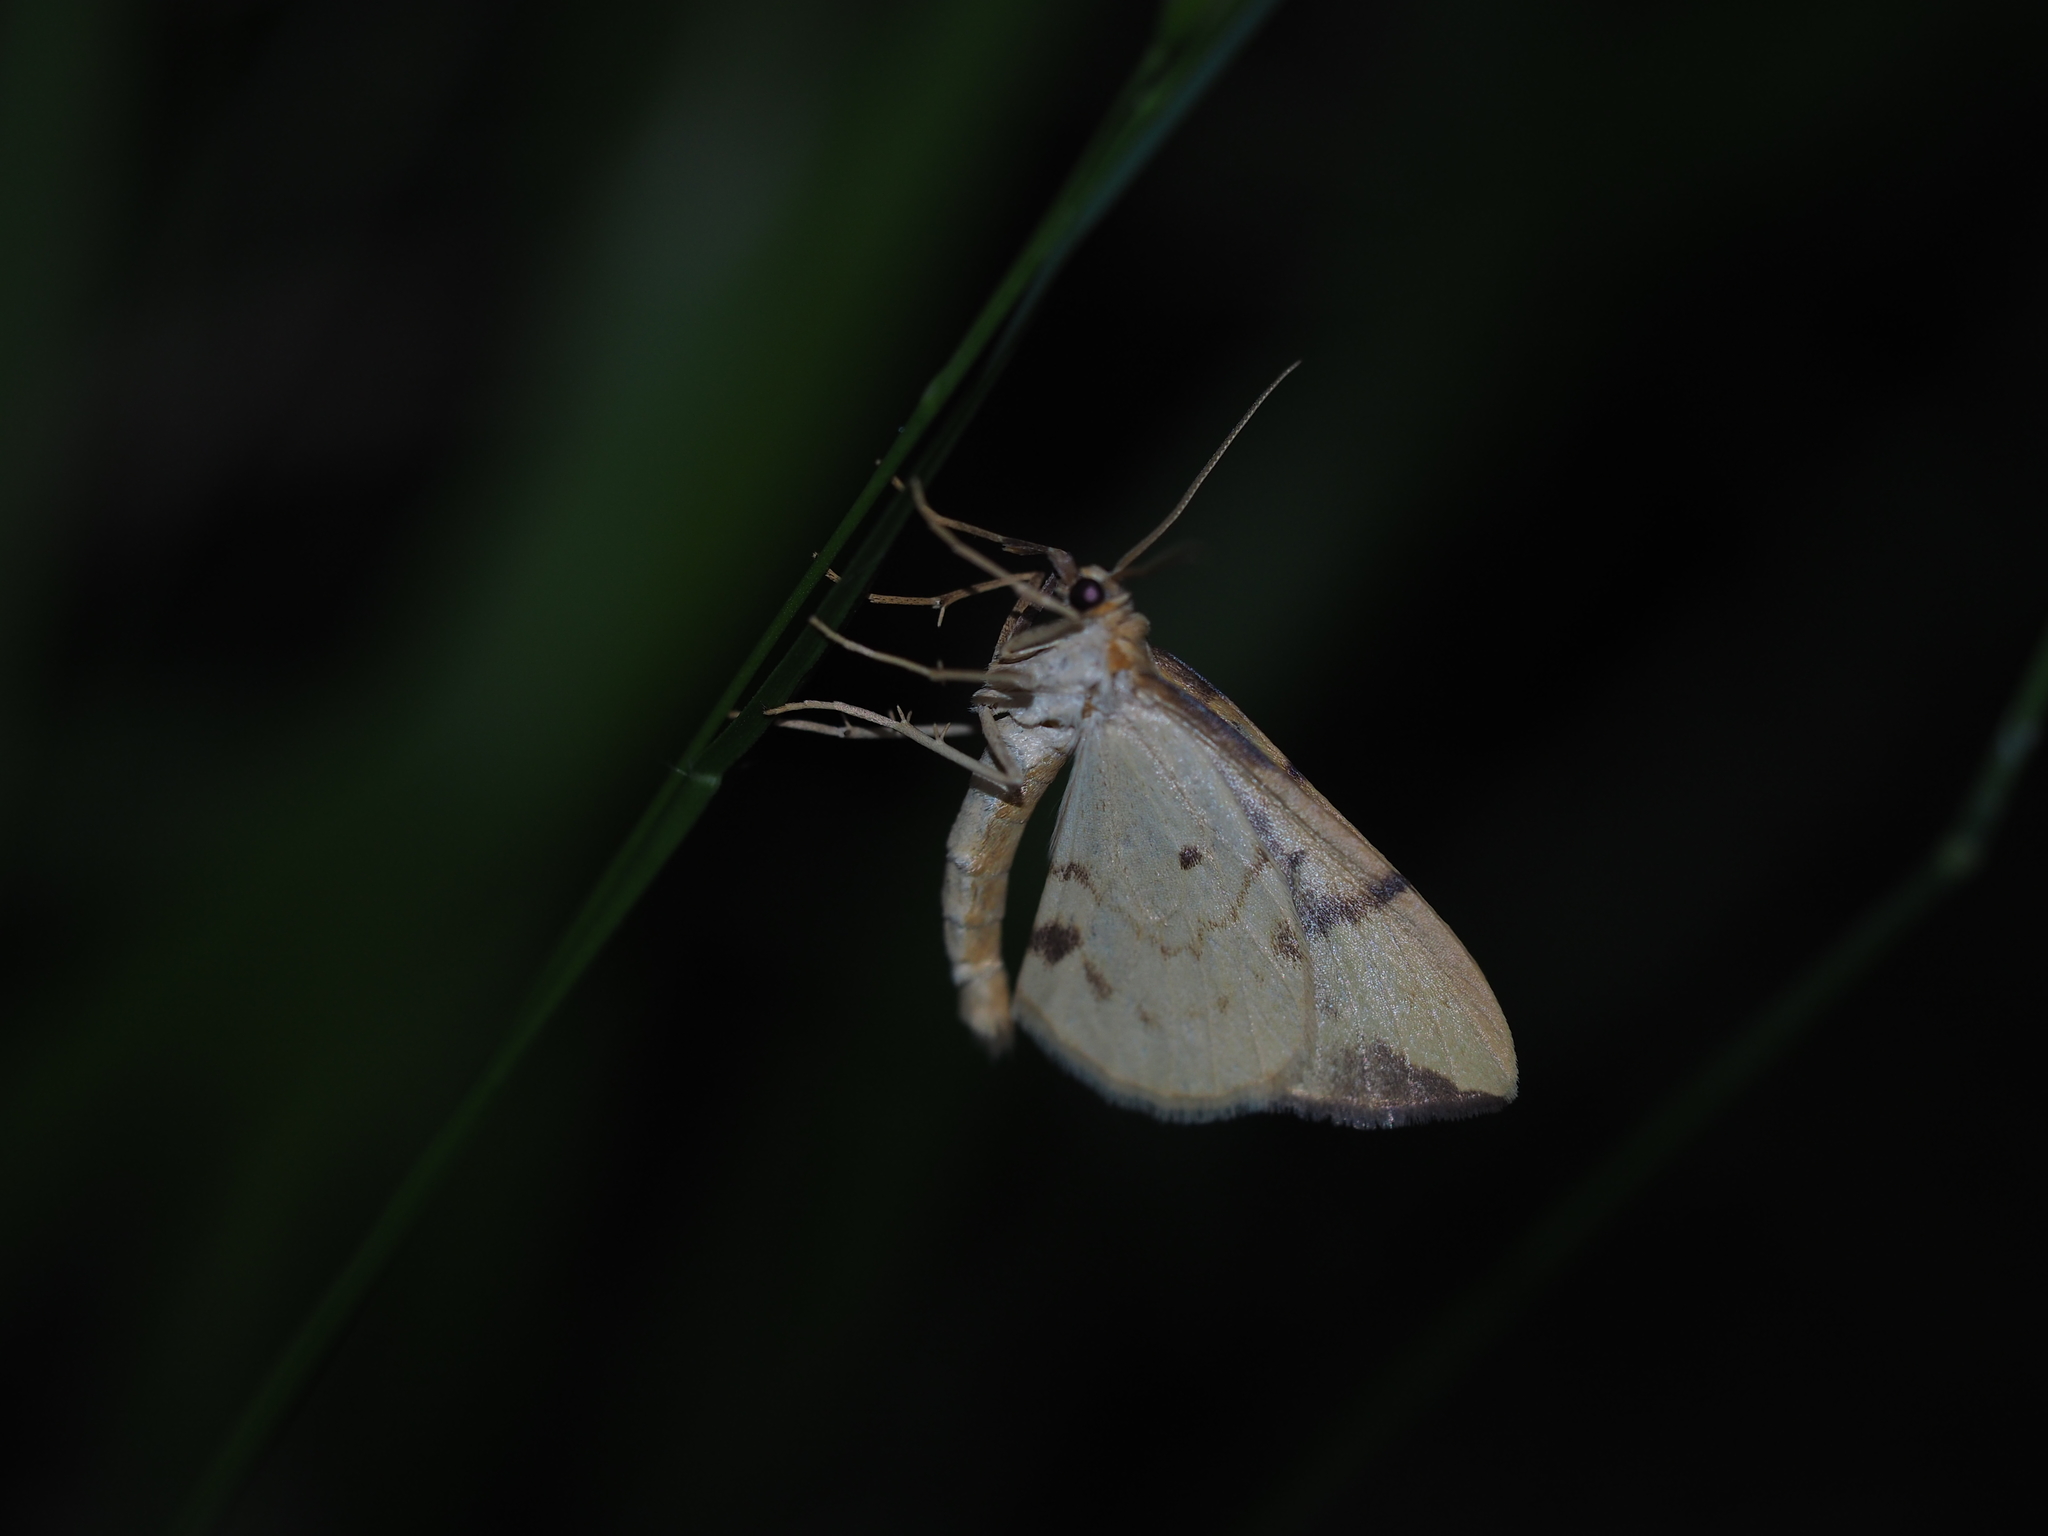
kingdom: Animalia
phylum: Arthropoda
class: Insecta
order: Lepidoptera
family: Geometridae
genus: Eulithis
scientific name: Eulithis pyraliata
